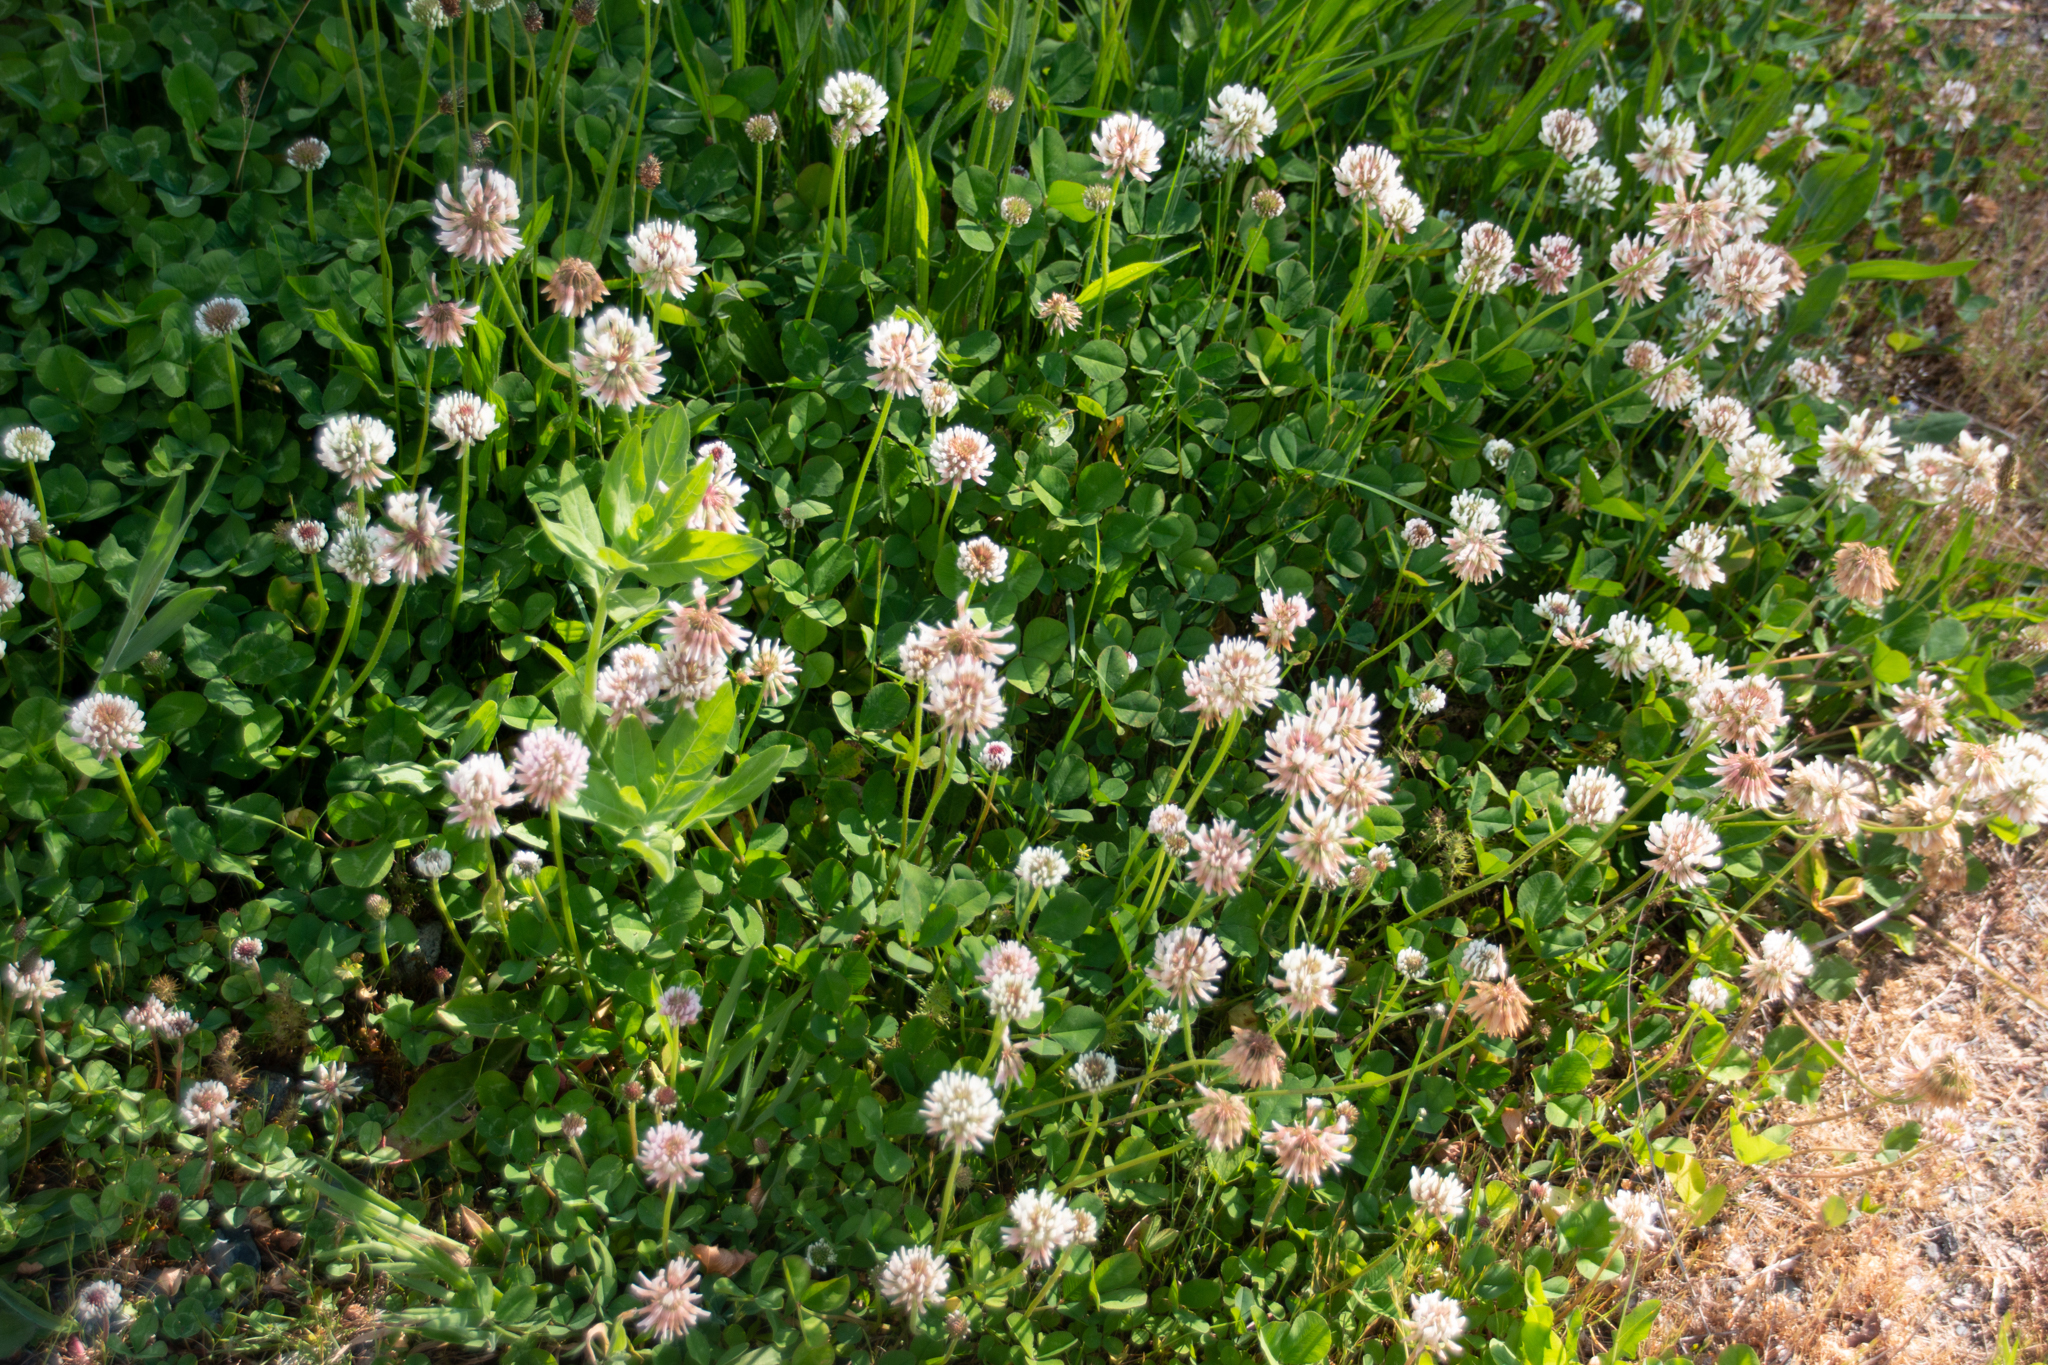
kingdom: Plantae
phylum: Tracheophyta
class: Magnoliopsida
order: Fabales
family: Fabaceae
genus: Trifolium
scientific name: Trifolium repens
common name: White clover
